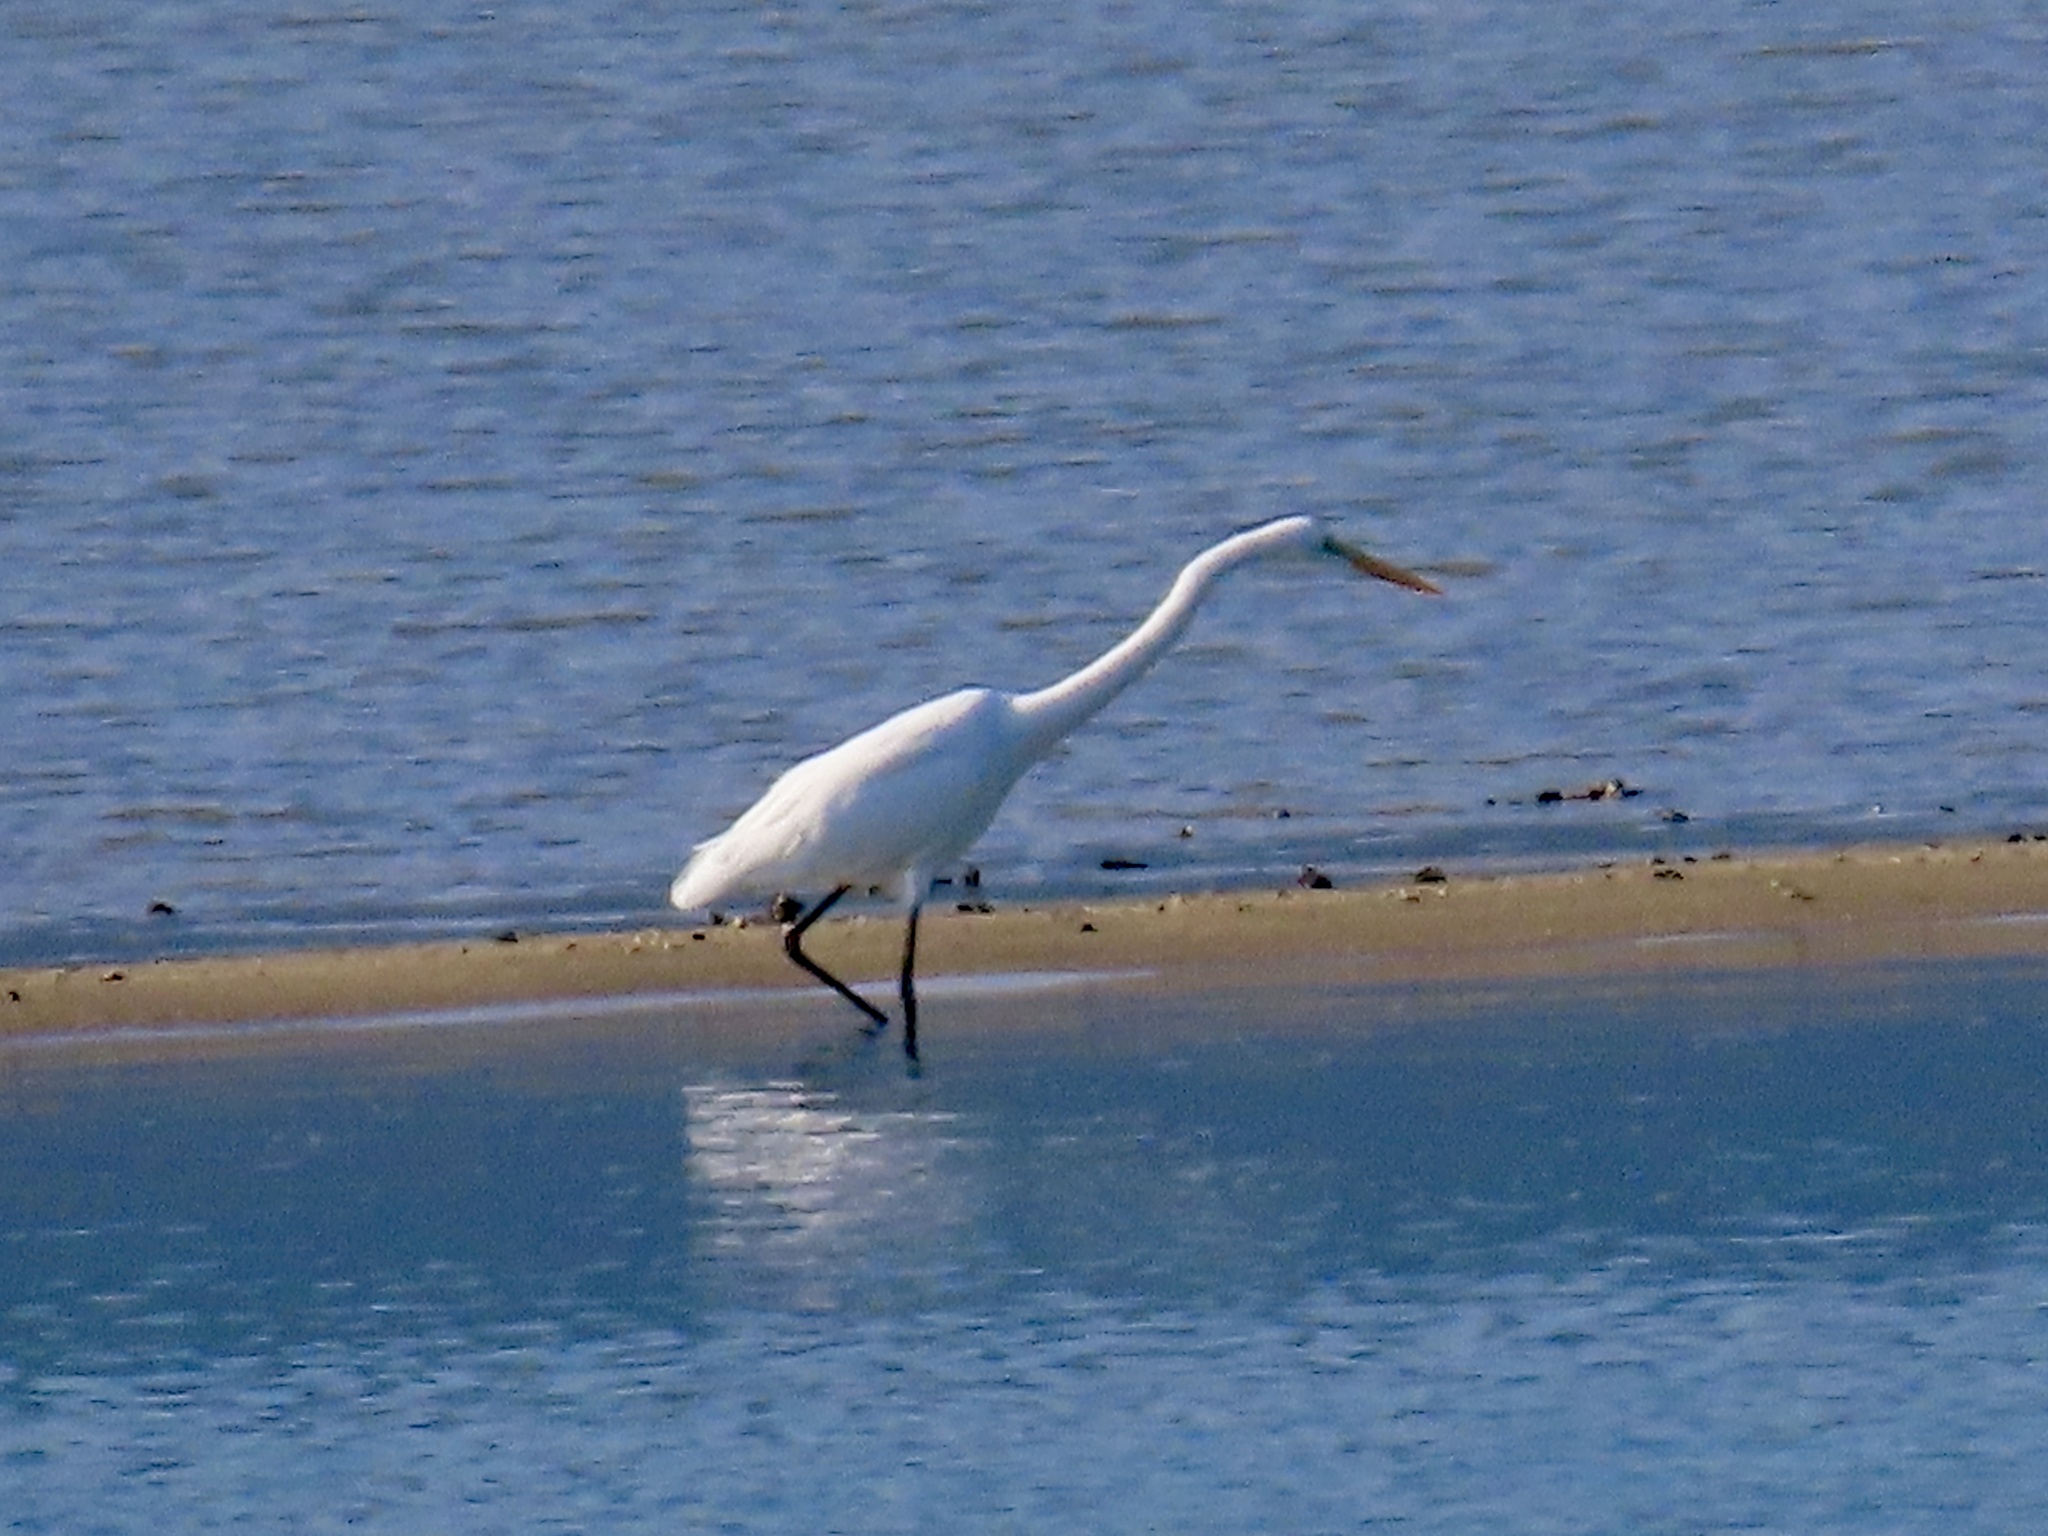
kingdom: Animalia
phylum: Chordata
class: Aves
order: Pelecaniformes
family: Ardeidae
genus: Ardea
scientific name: Ardea alba
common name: Great egret
